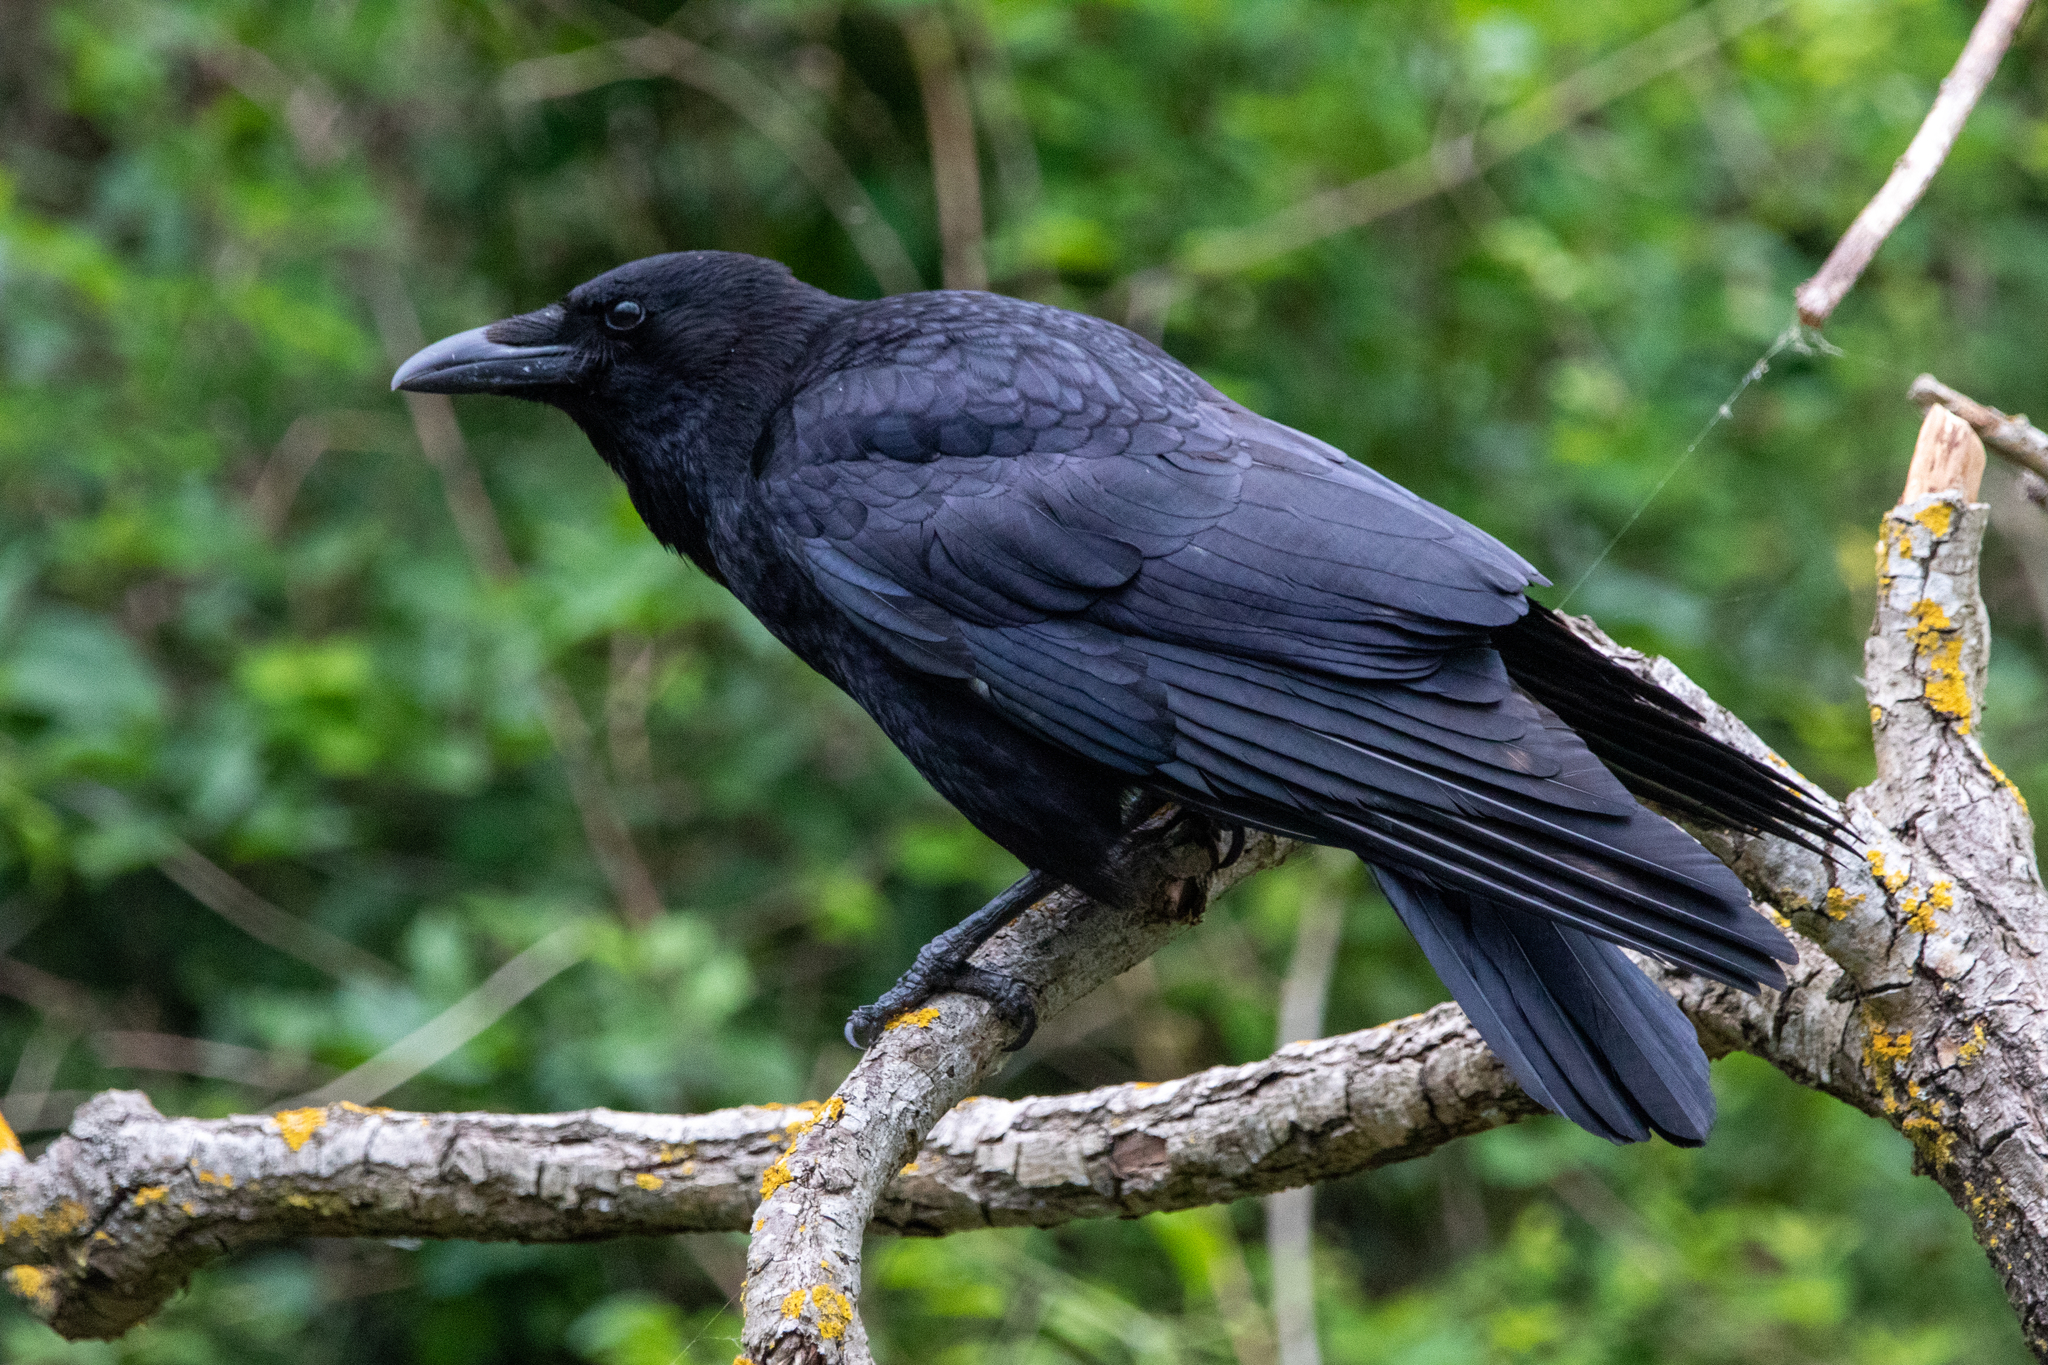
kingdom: Animalia
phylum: Chordata
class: Aves
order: Passeriformes
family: Corvidae
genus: Corvus
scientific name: Corvus corone
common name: Carrion crow
